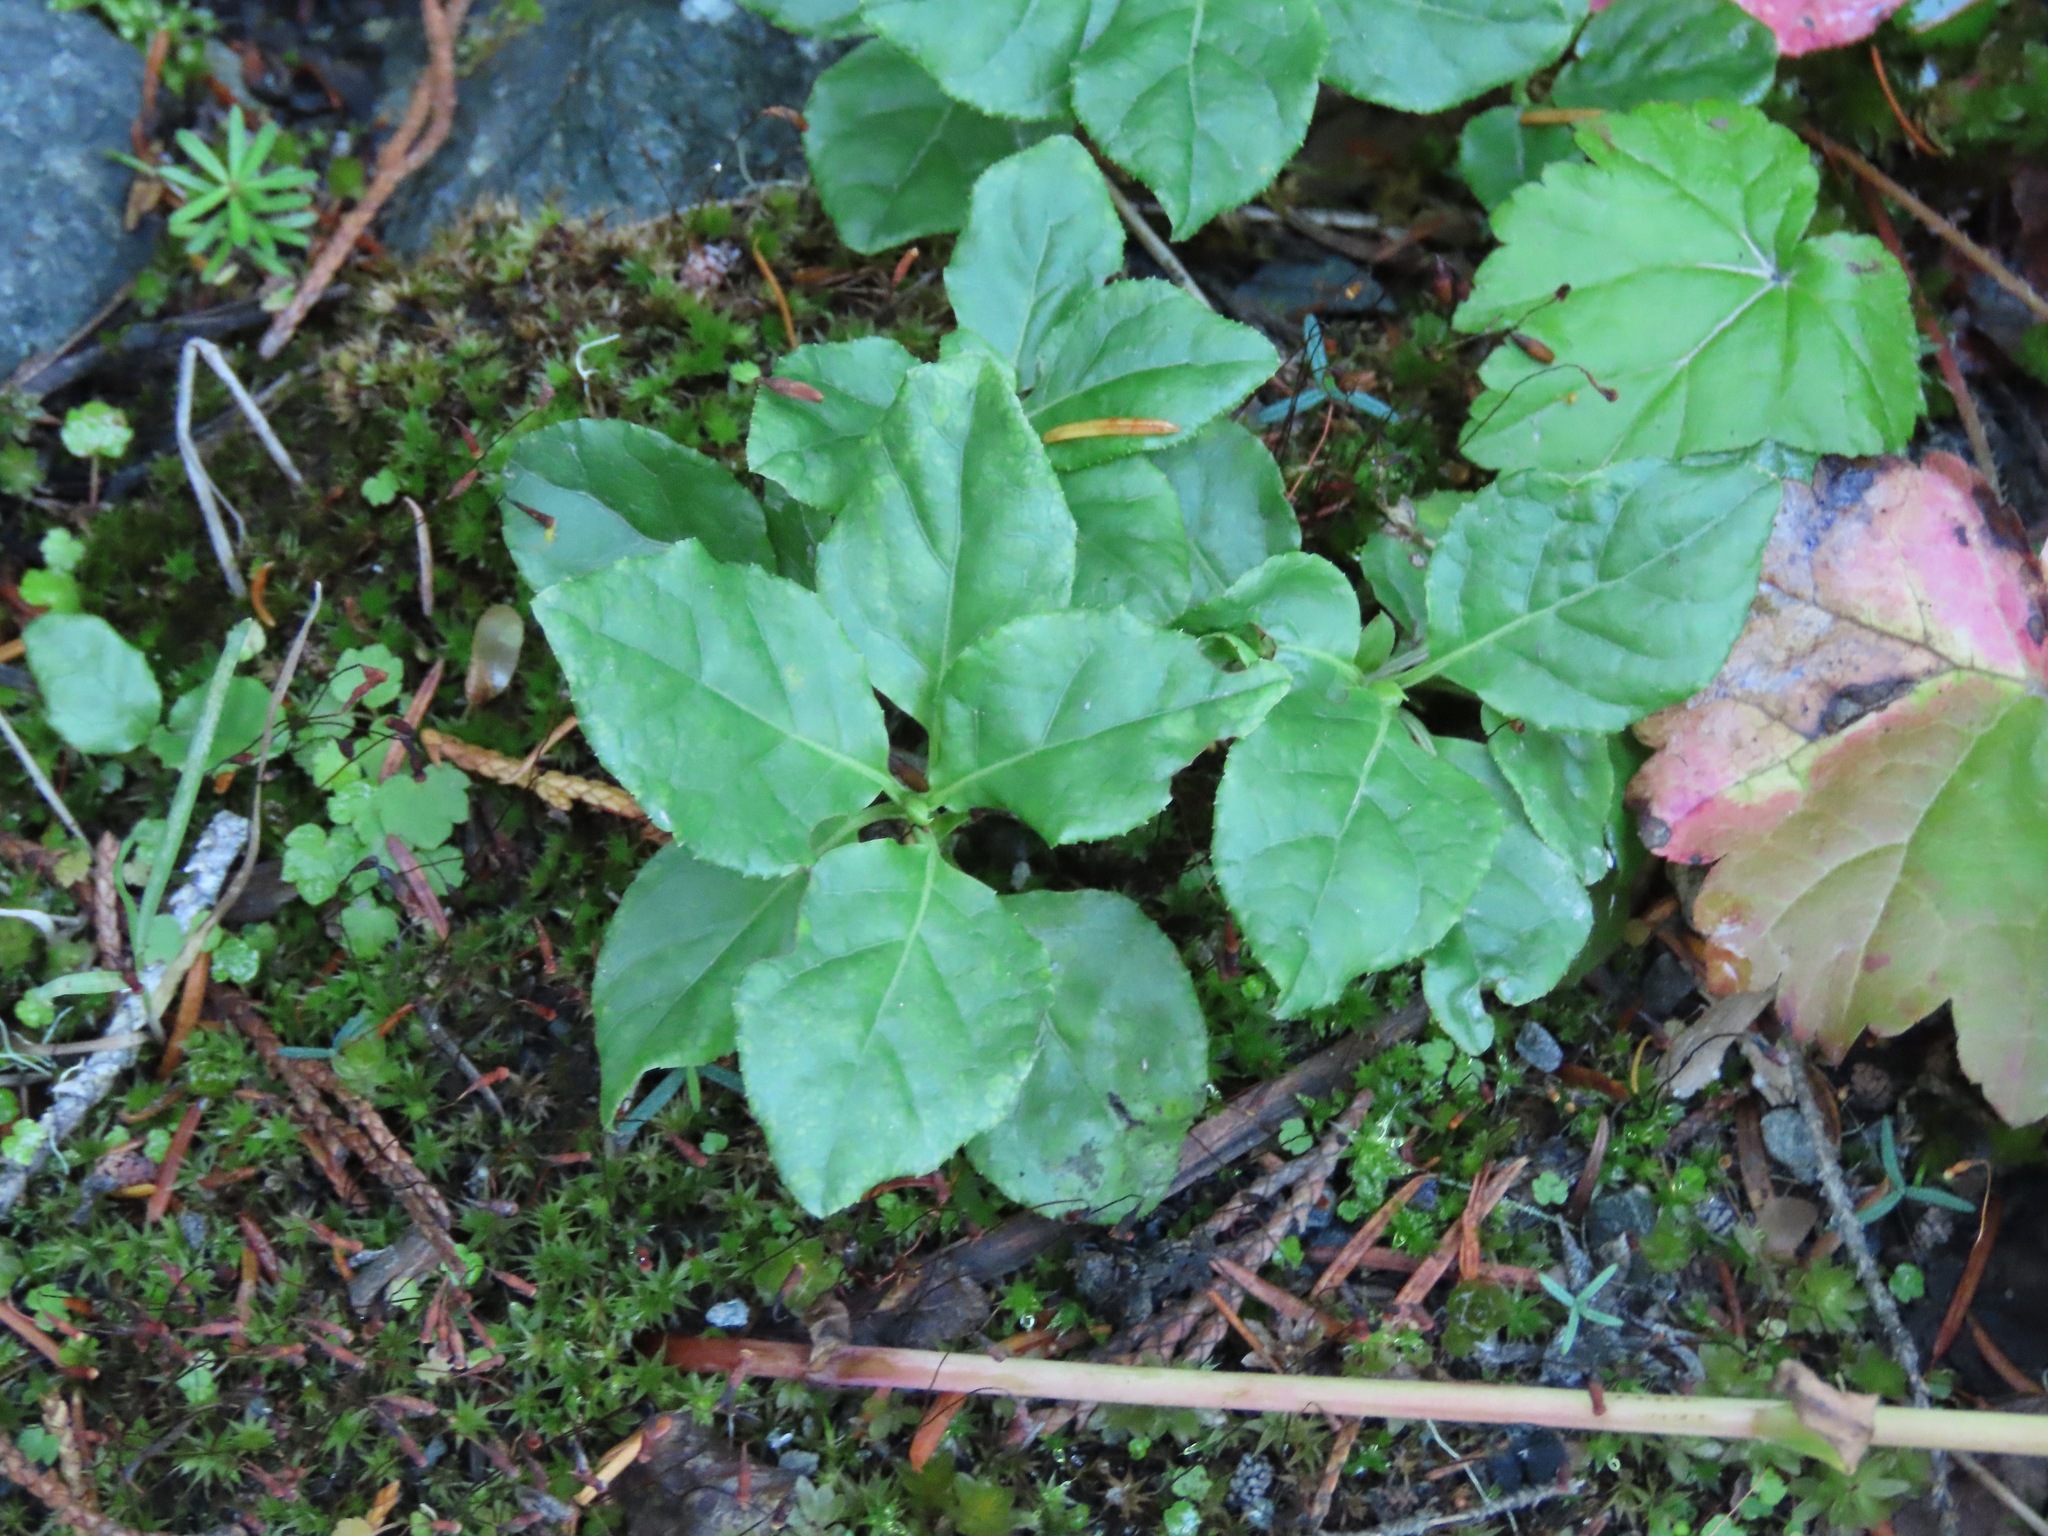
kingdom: Plantae
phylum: Tracheophyta
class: Magnoliopsida
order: Ericales
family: Ericaceae
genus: Orthilia
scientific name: Orthilia secunda
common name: One-sided orthilia
